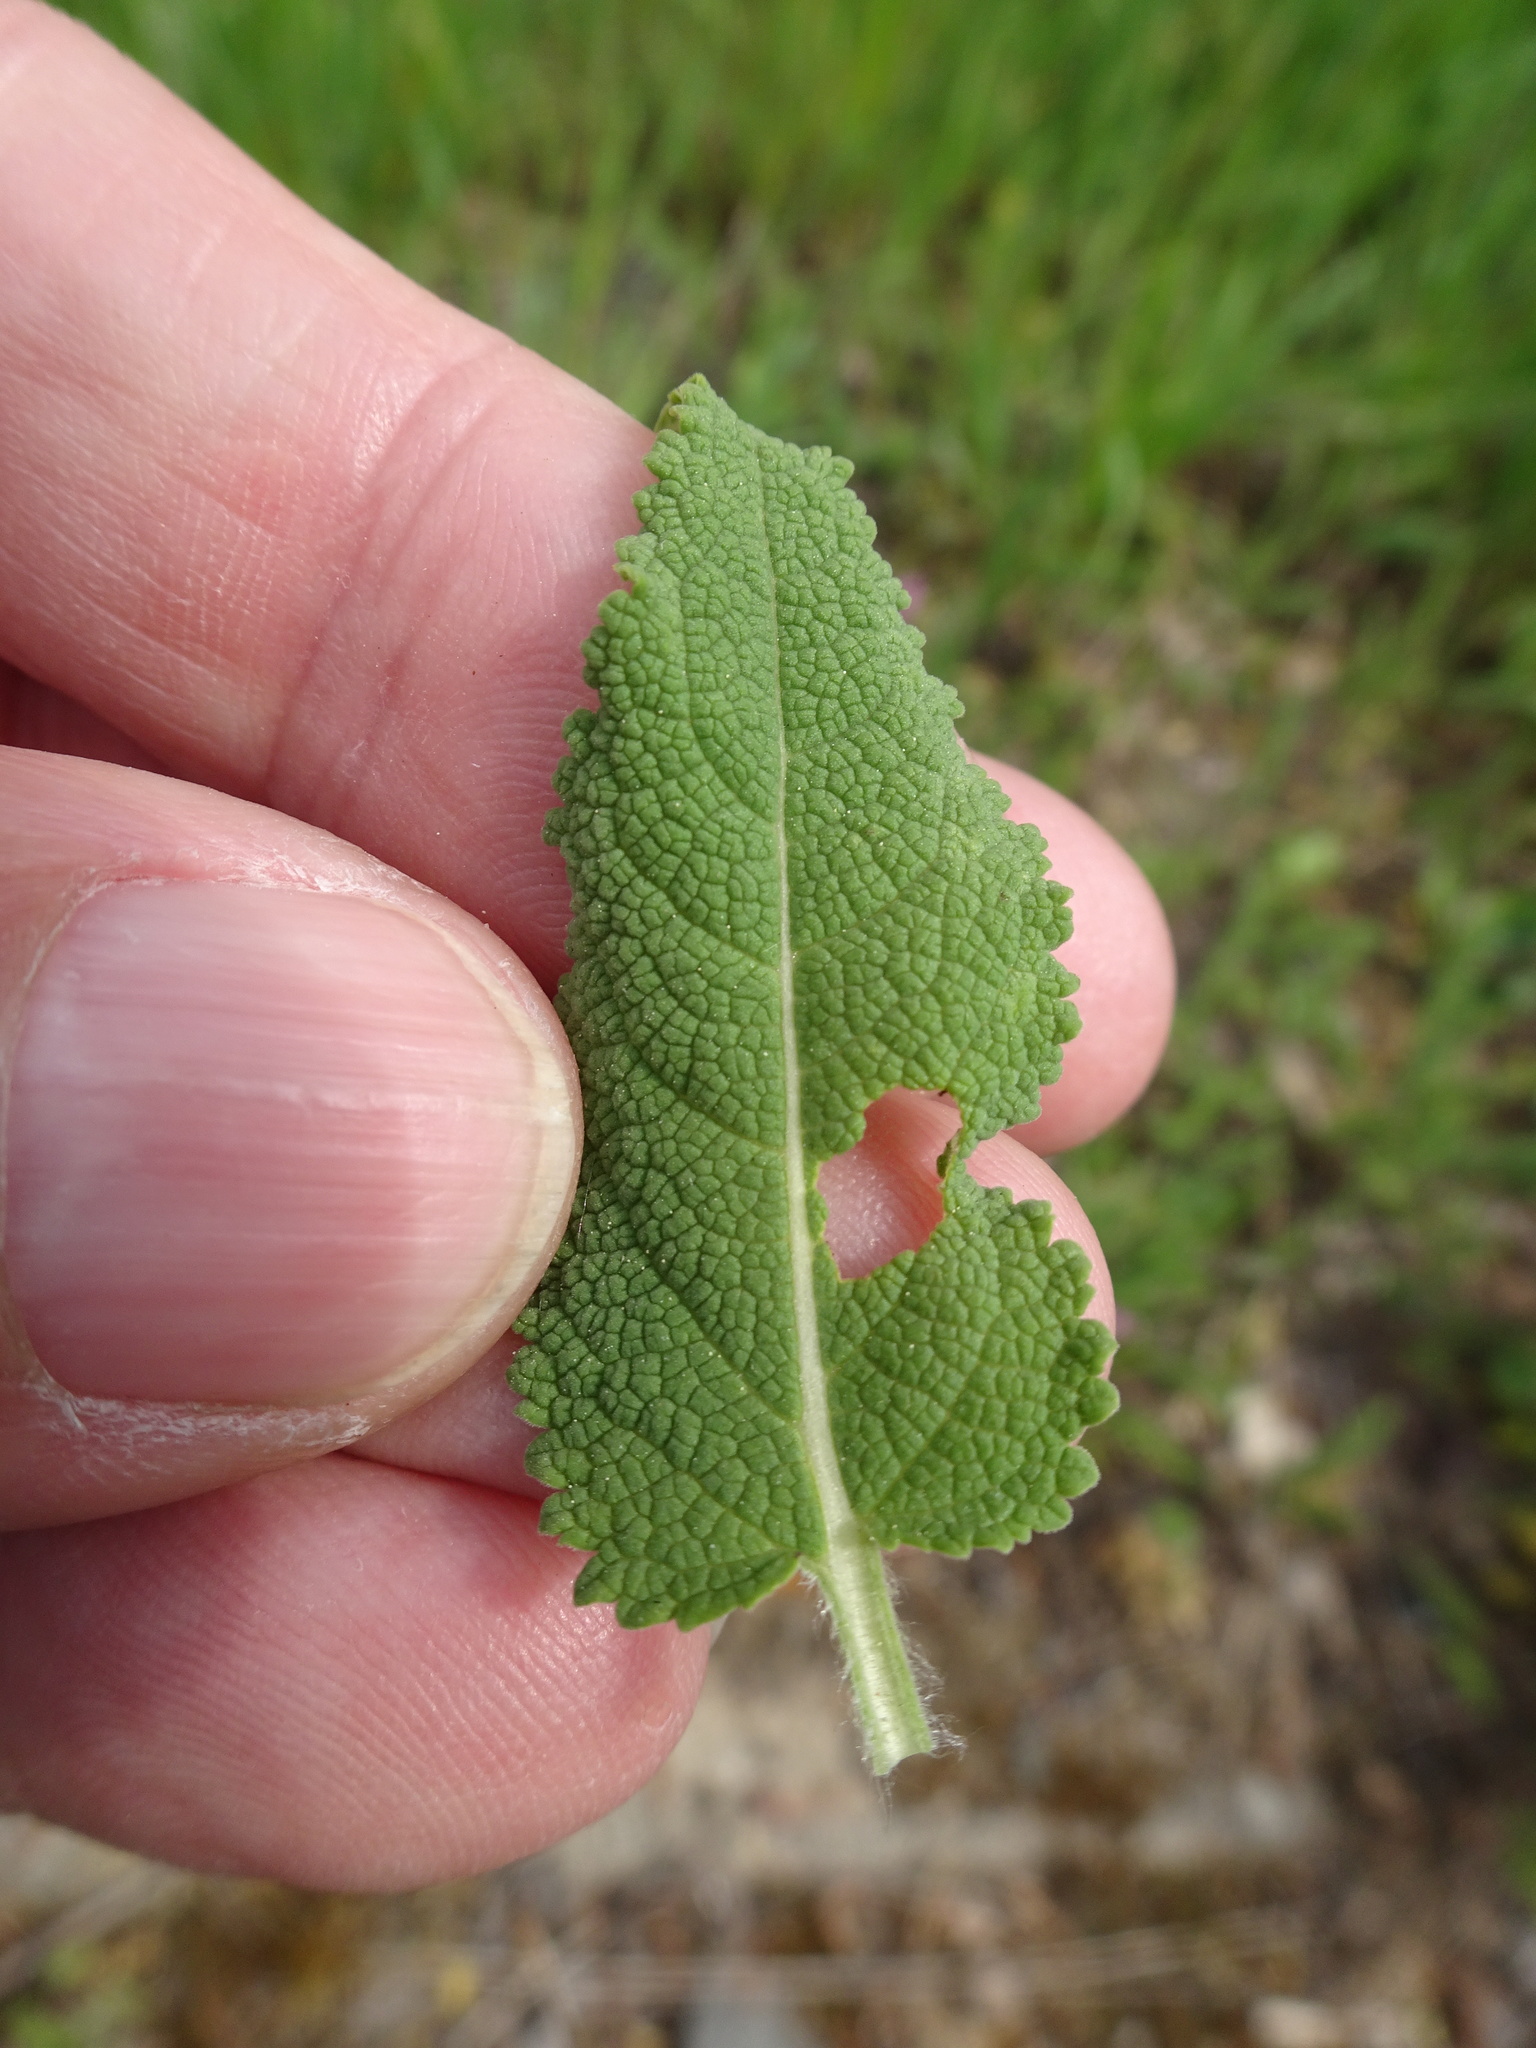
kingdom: Plantae
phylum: Tracheophyta
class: Magnoliopsida
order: Lamiales
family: Lamiaceae
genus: Salvia
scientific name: Salvia nemorosa
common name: Balkan clary
